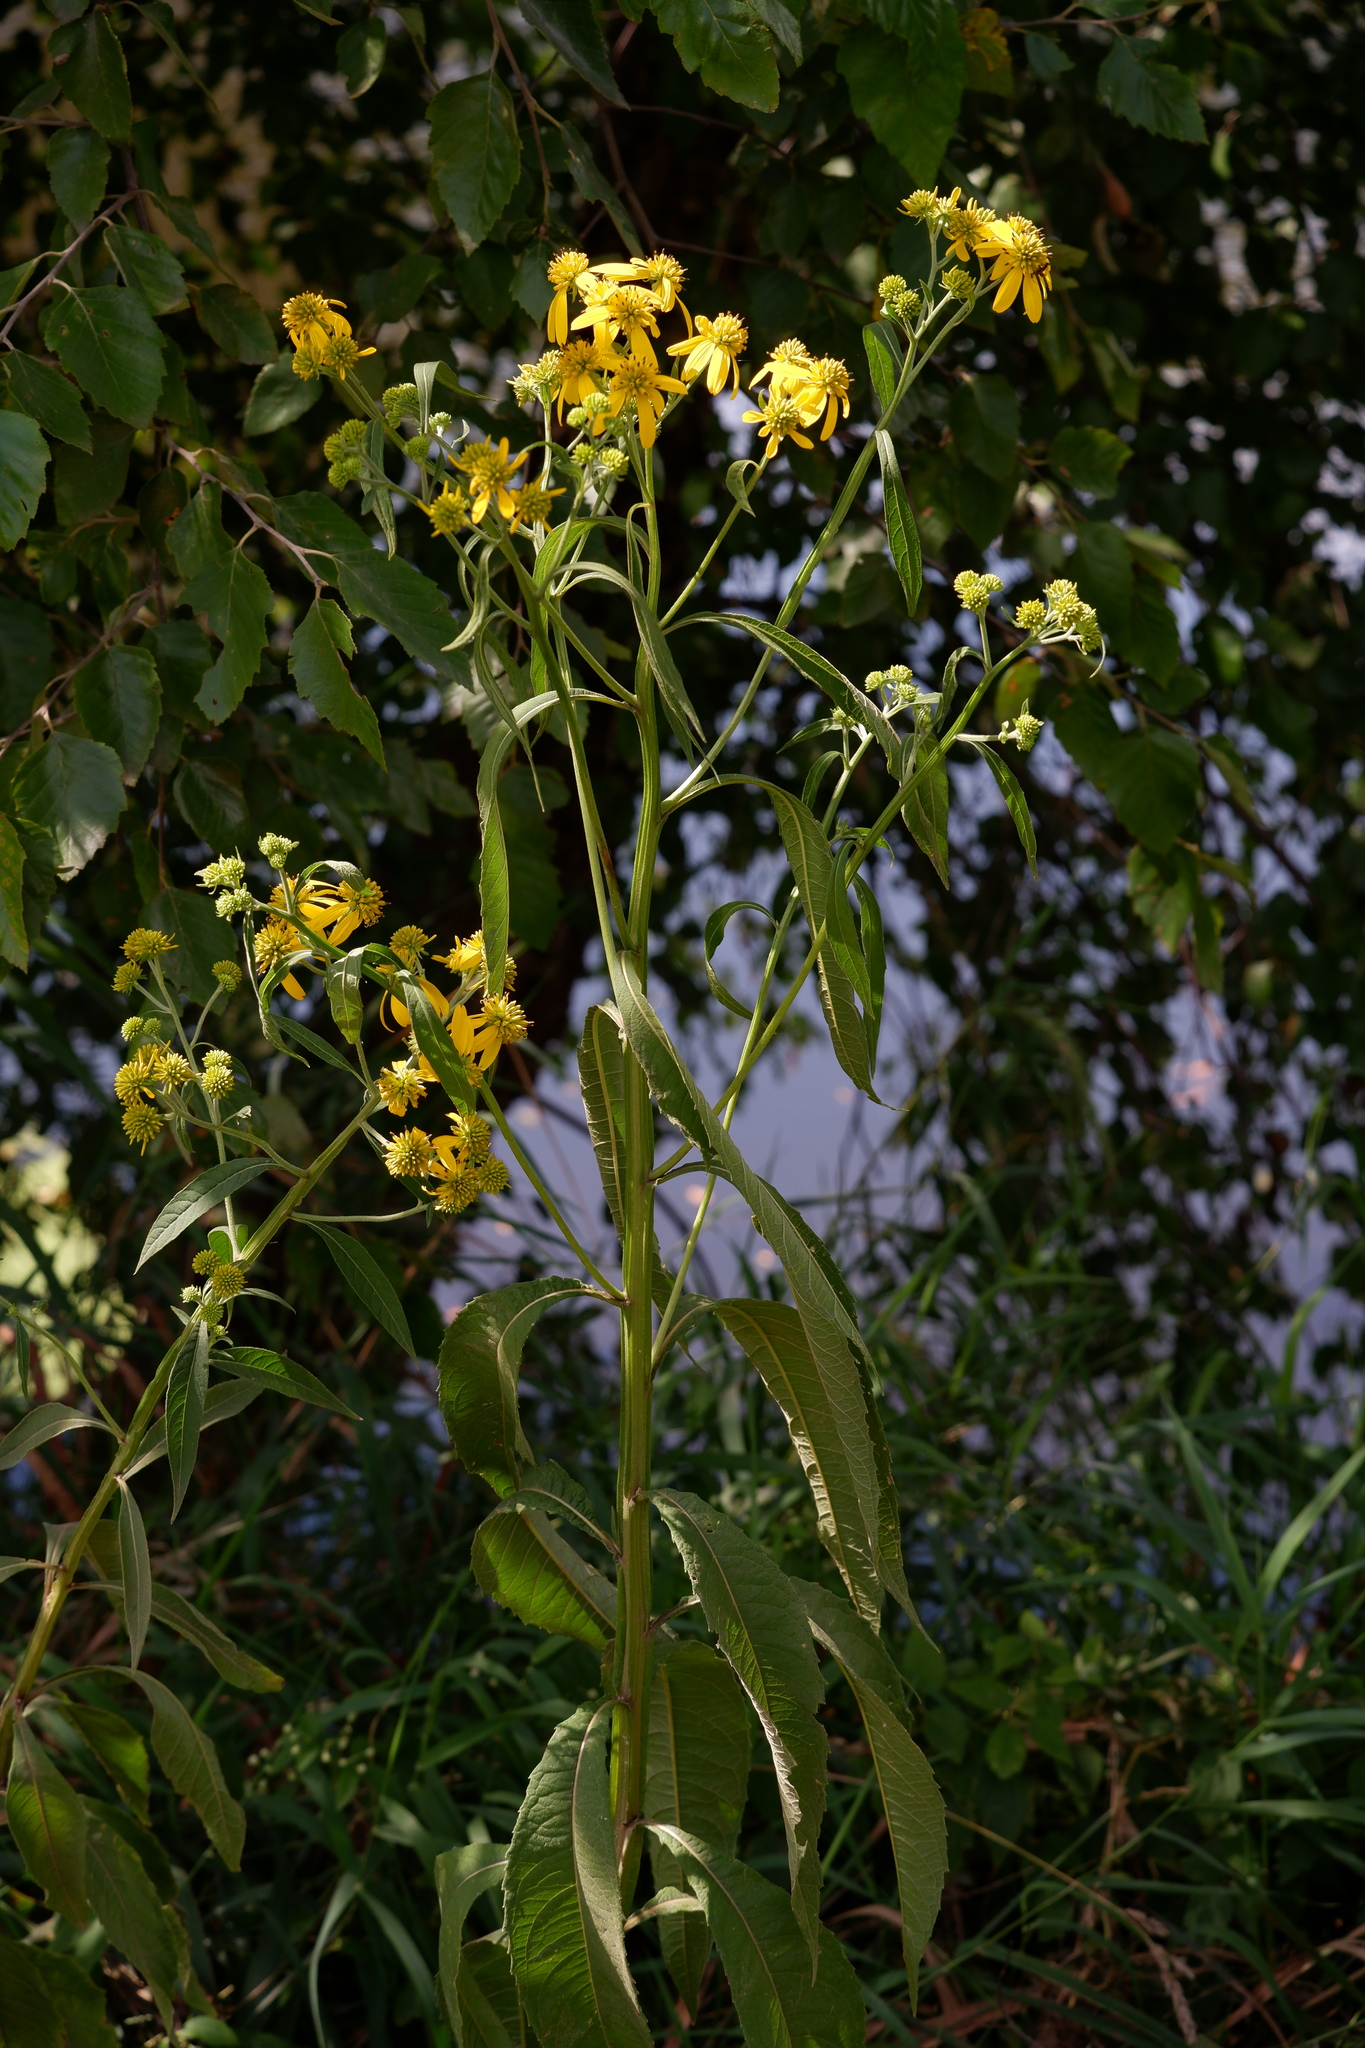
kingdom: Plantae
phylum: Tracheophyta
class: Magnoliopsida
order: Asterales
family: Asteraceae
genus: Verbesina
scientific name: Verbesina alternifolia
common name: Wingstem
